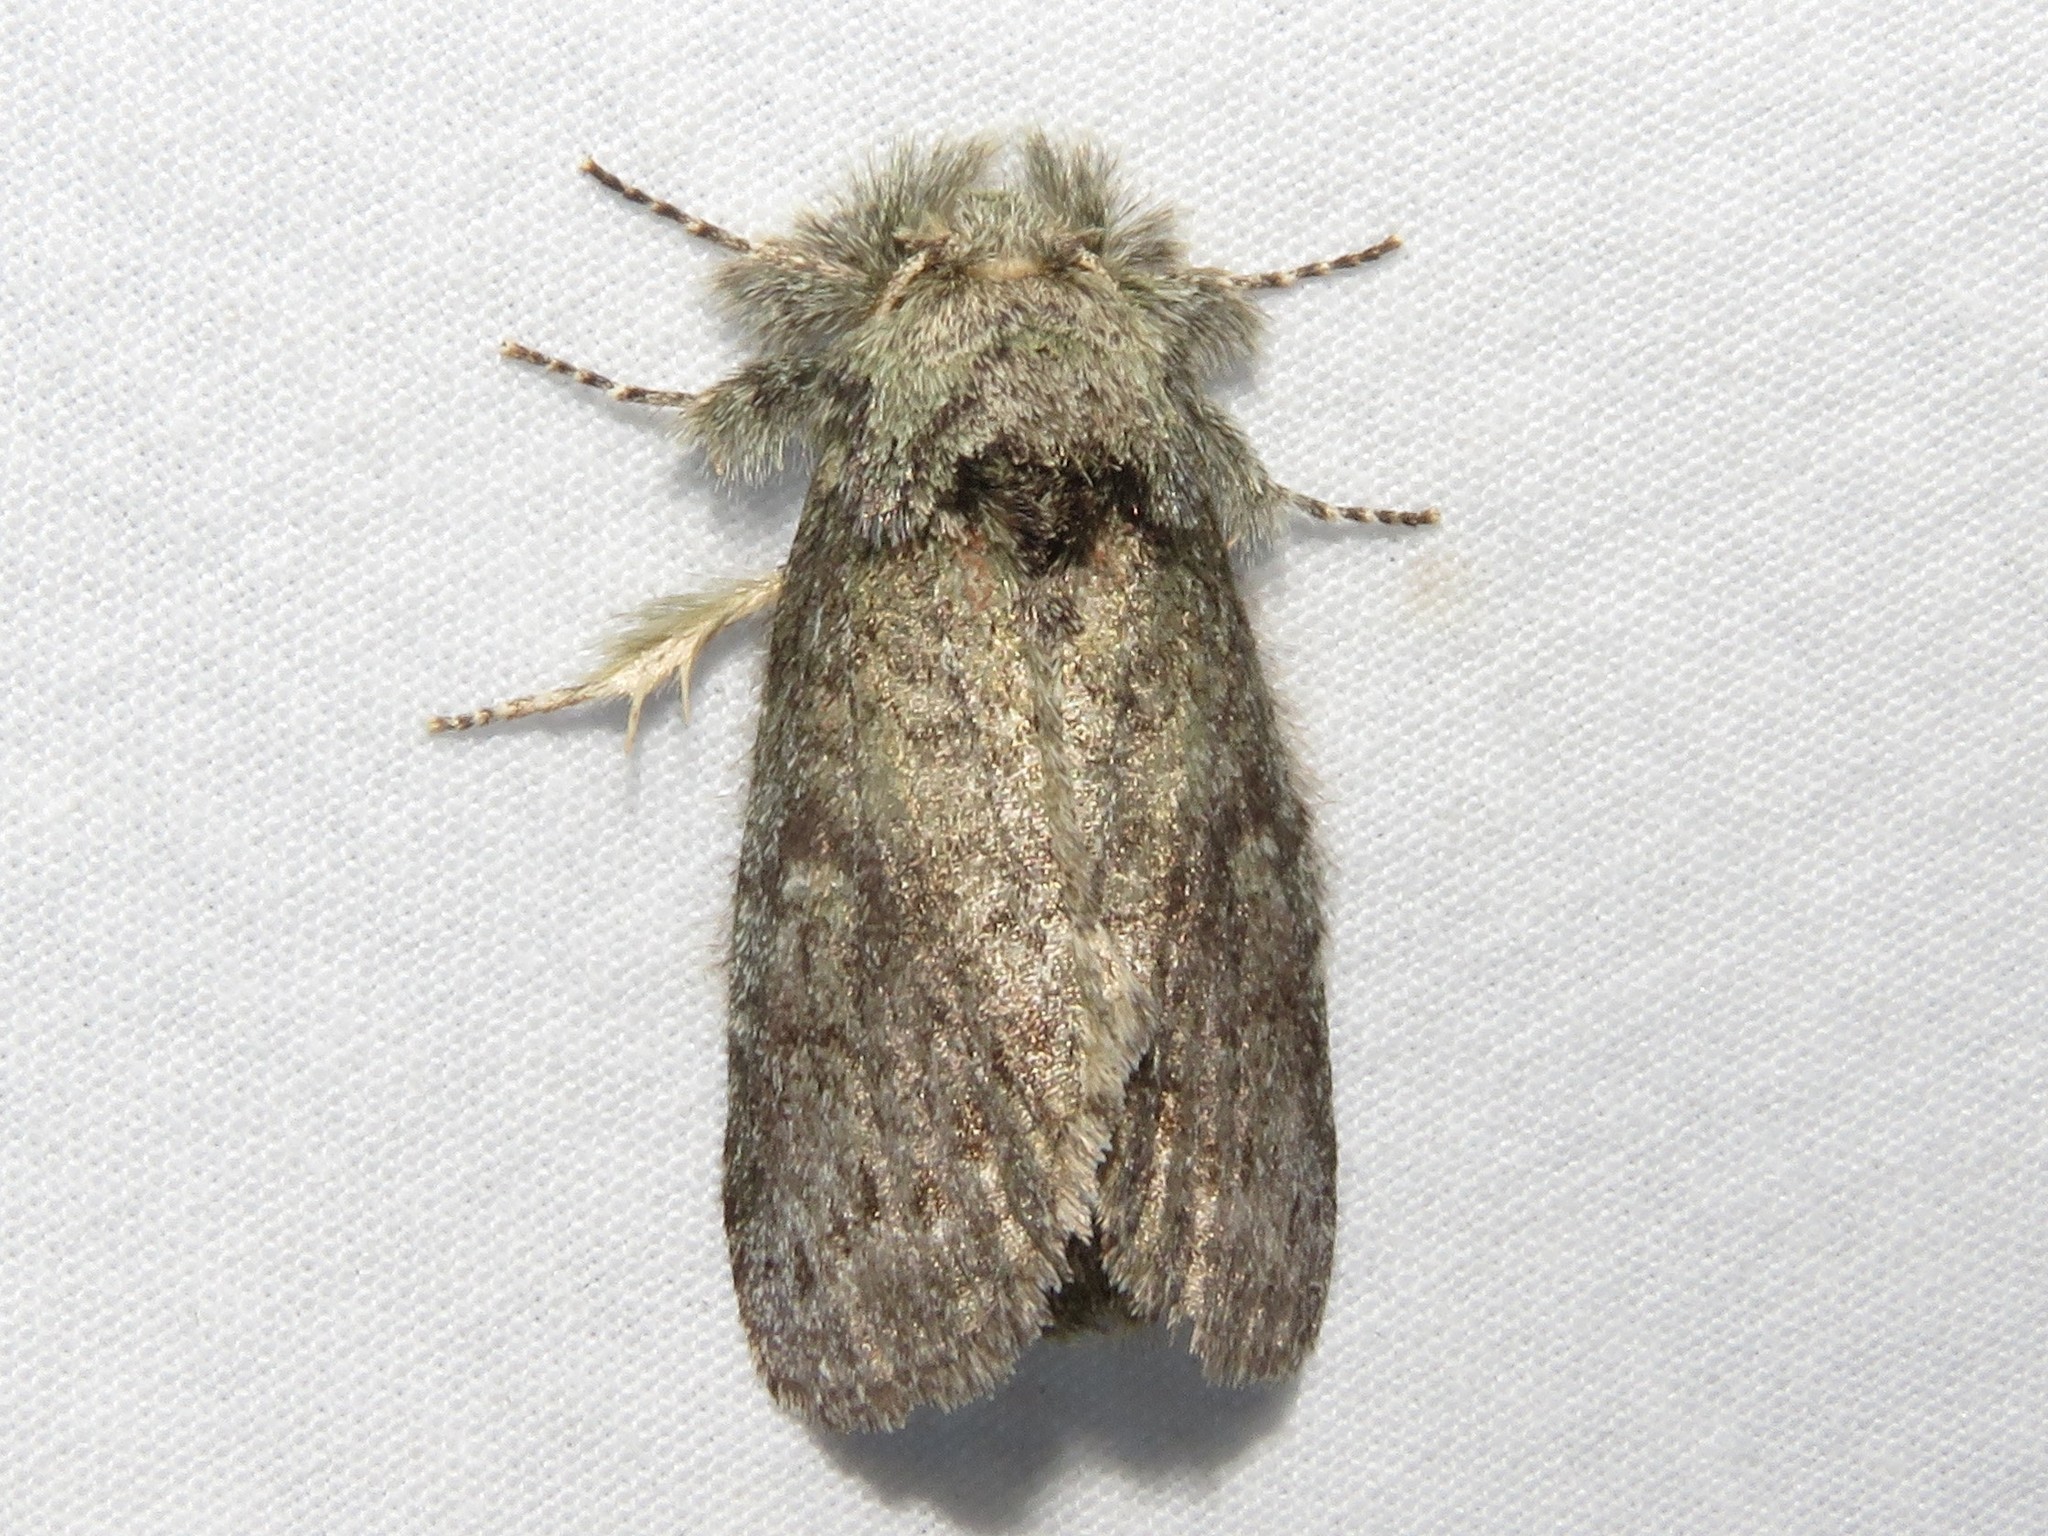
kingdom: Animalia
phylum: Arthropoda
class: Insecta
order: Lepidoptera
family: Notodontidae
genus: Disphragis
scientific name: Disphragis Cecrita guttivitta
